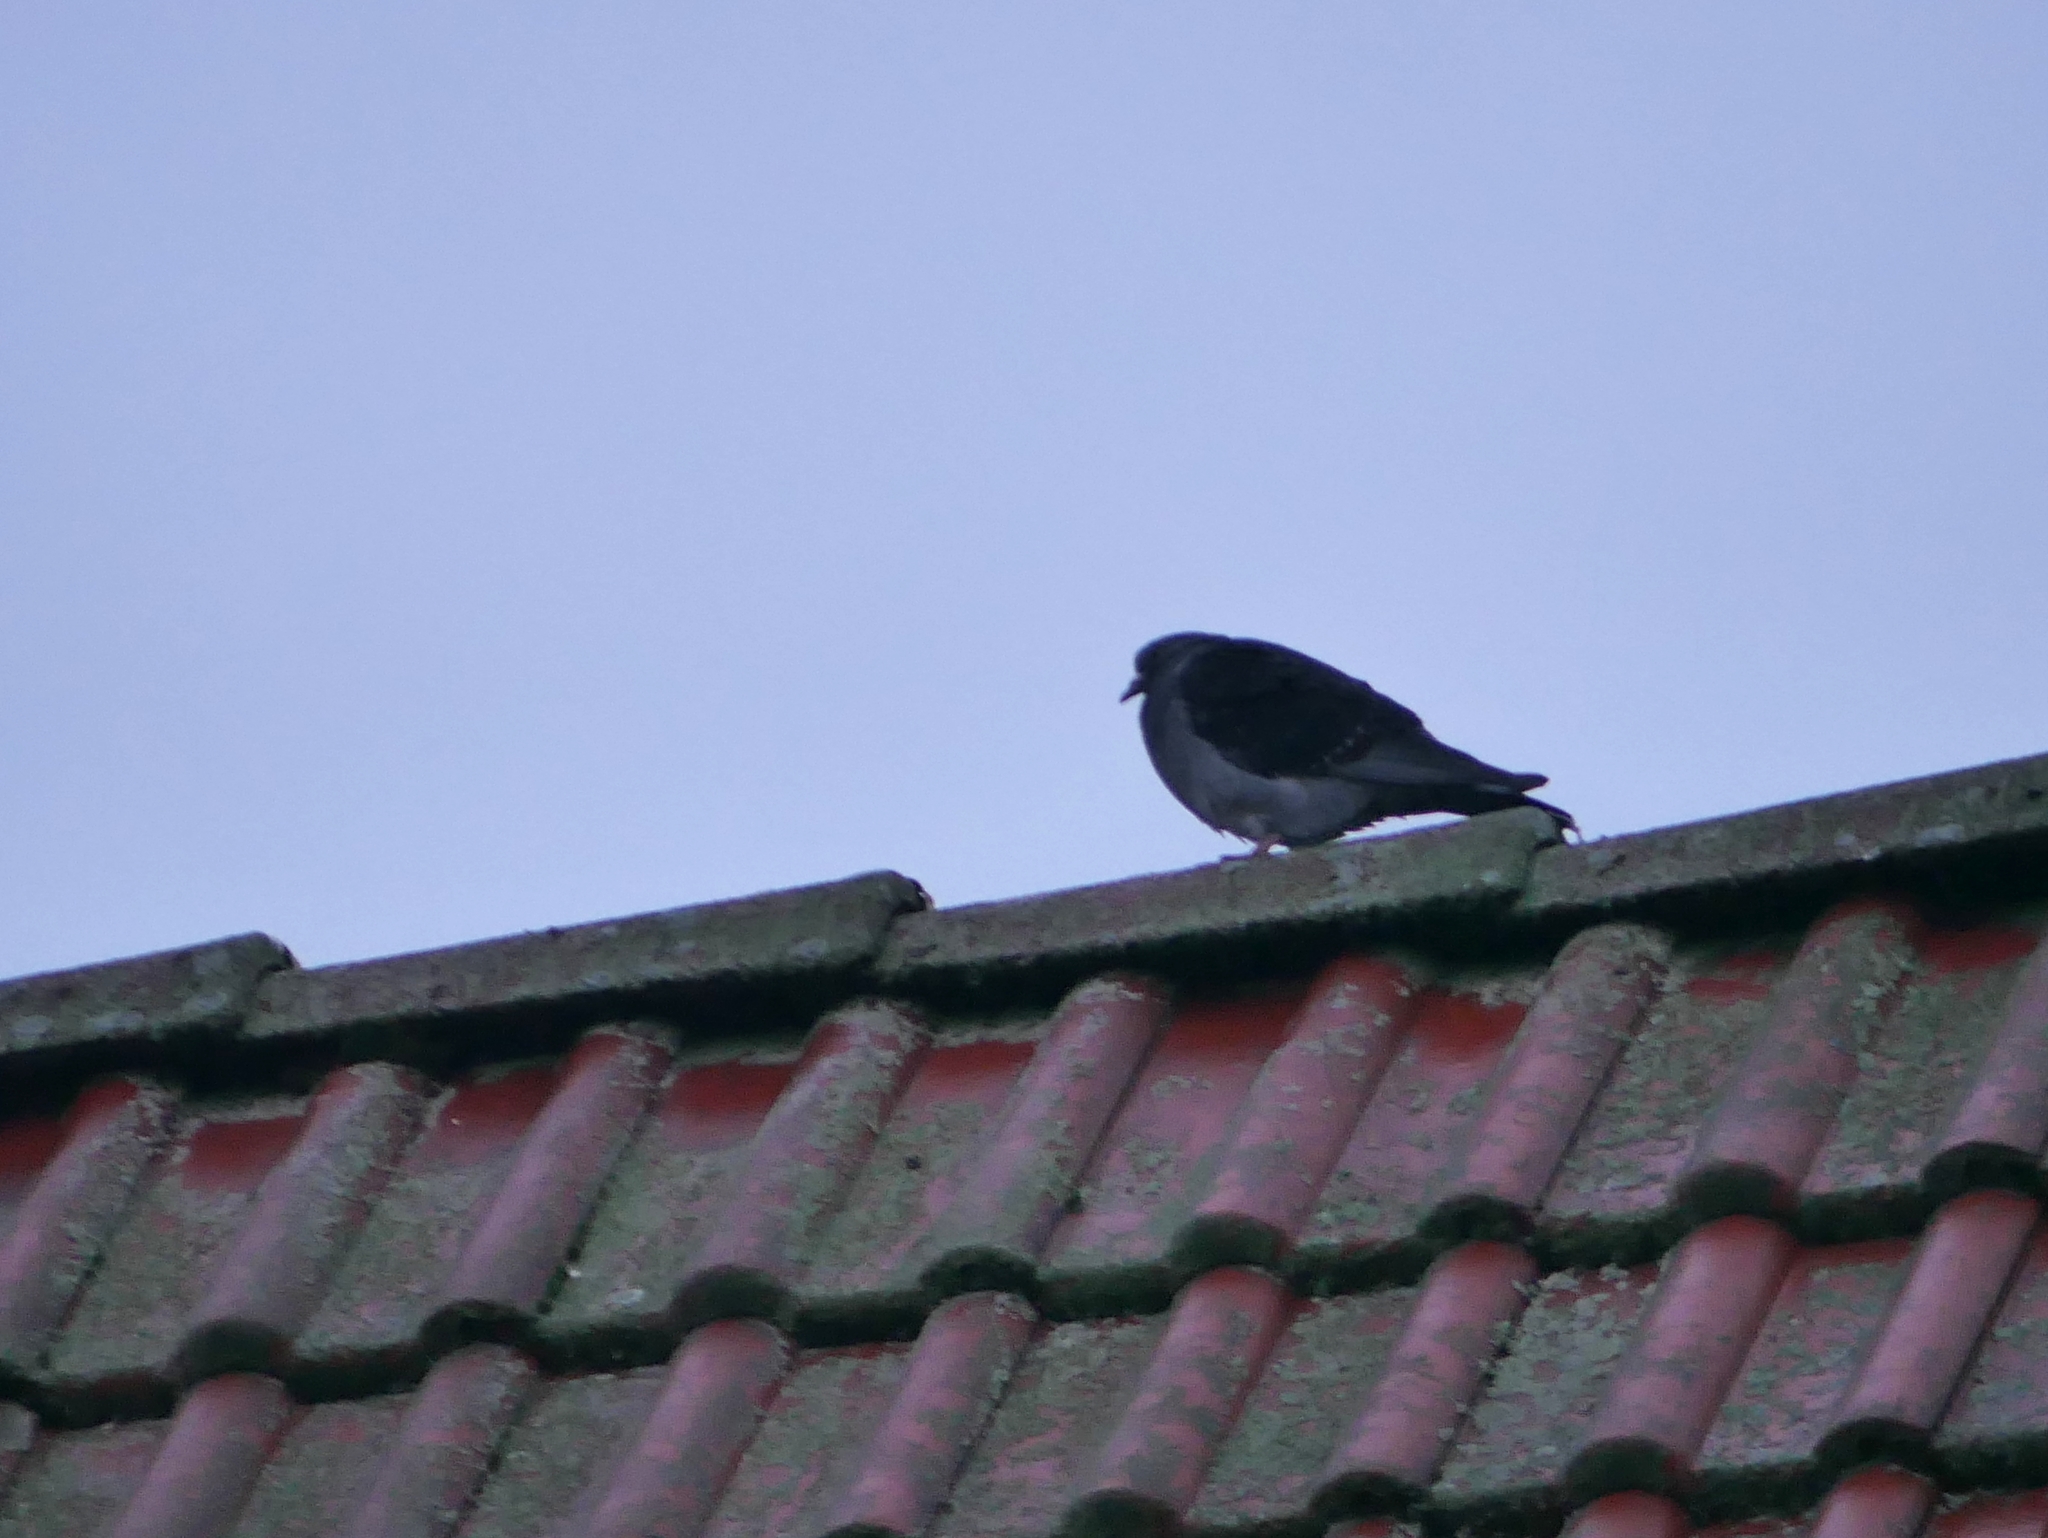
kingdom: Animalia
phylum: Chordata
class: Aves
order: Columbiformes
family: Columbidae
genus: Columba
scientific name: Columba livia
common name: Rock pigeon
